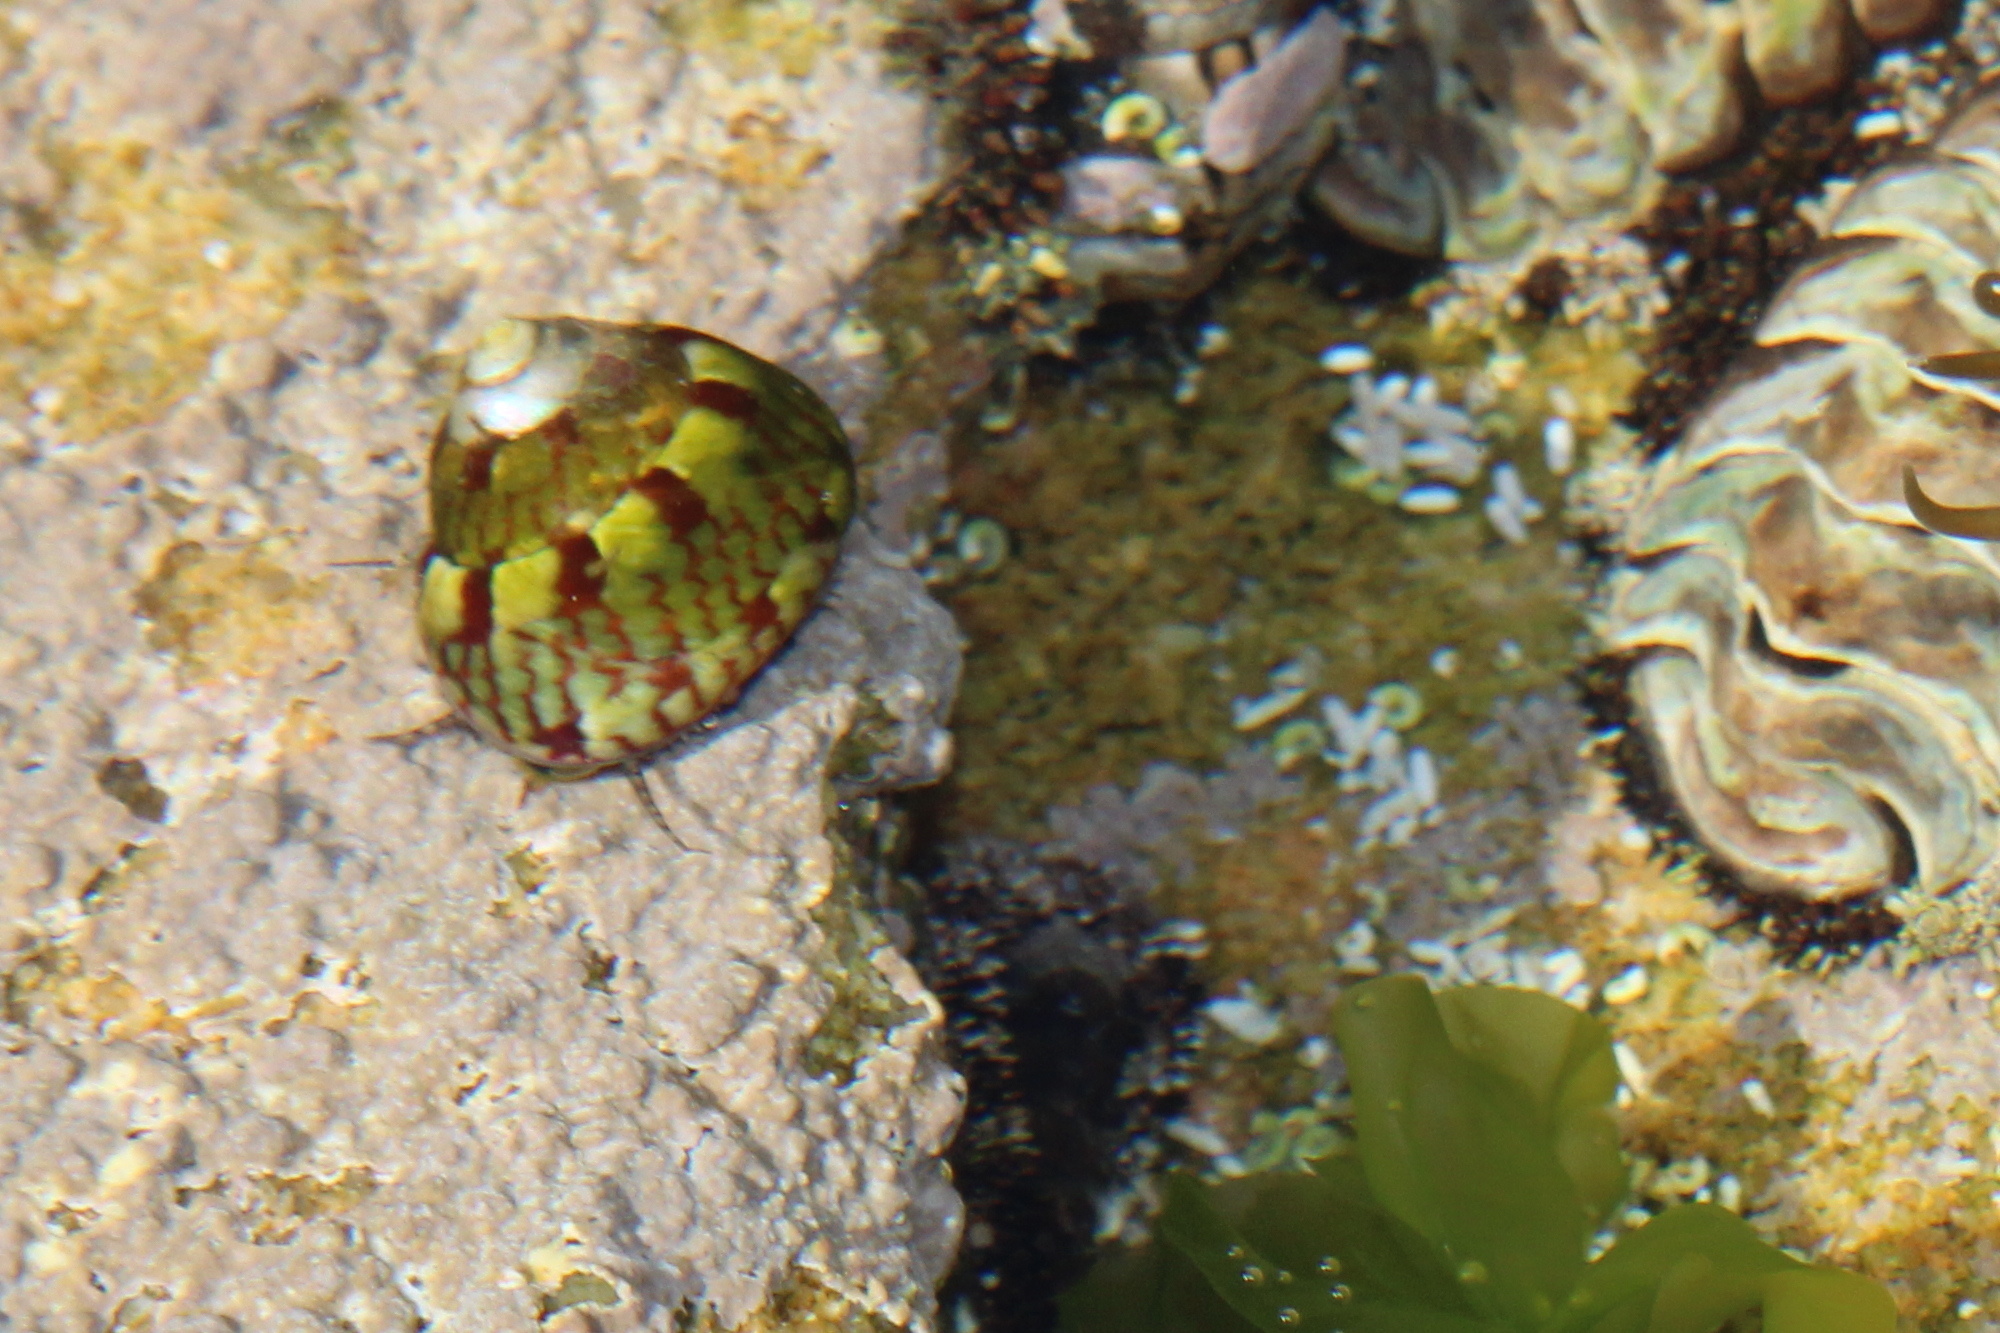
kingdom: Animalia
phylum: Mollusca
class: Gastropoda
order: Trochida
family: Trochidae
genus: Pictodiloma
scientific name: Pictodiloma suavis
